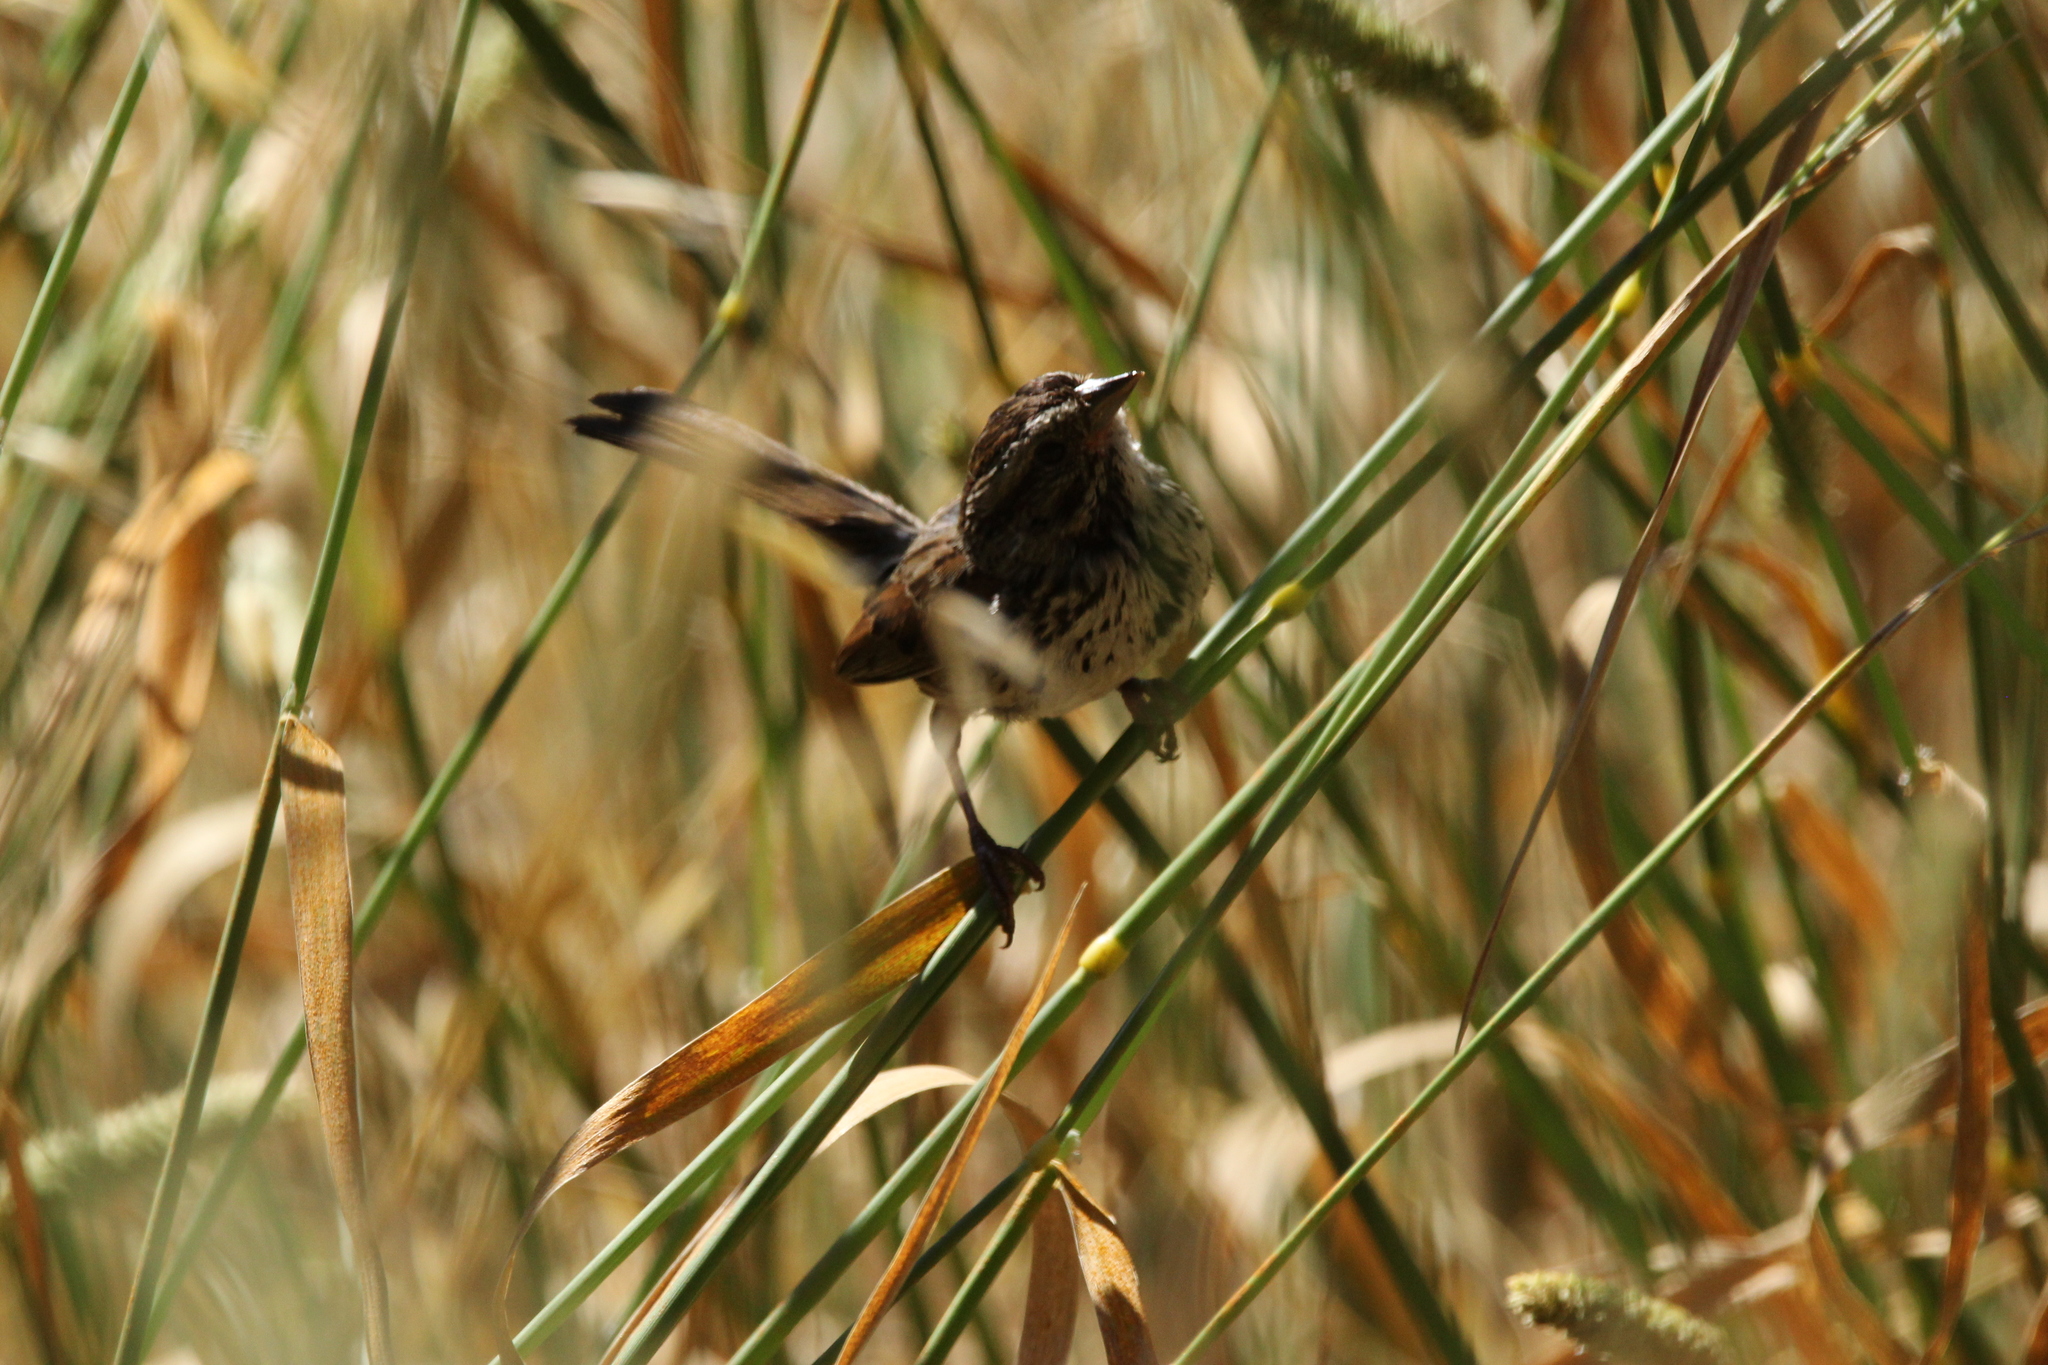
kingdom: Animalia
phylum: Chordata
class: Aves
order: Passeriformes
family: Passerellidae
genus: Melospiza
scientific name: Melospiza melodia
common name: Song sparrow
